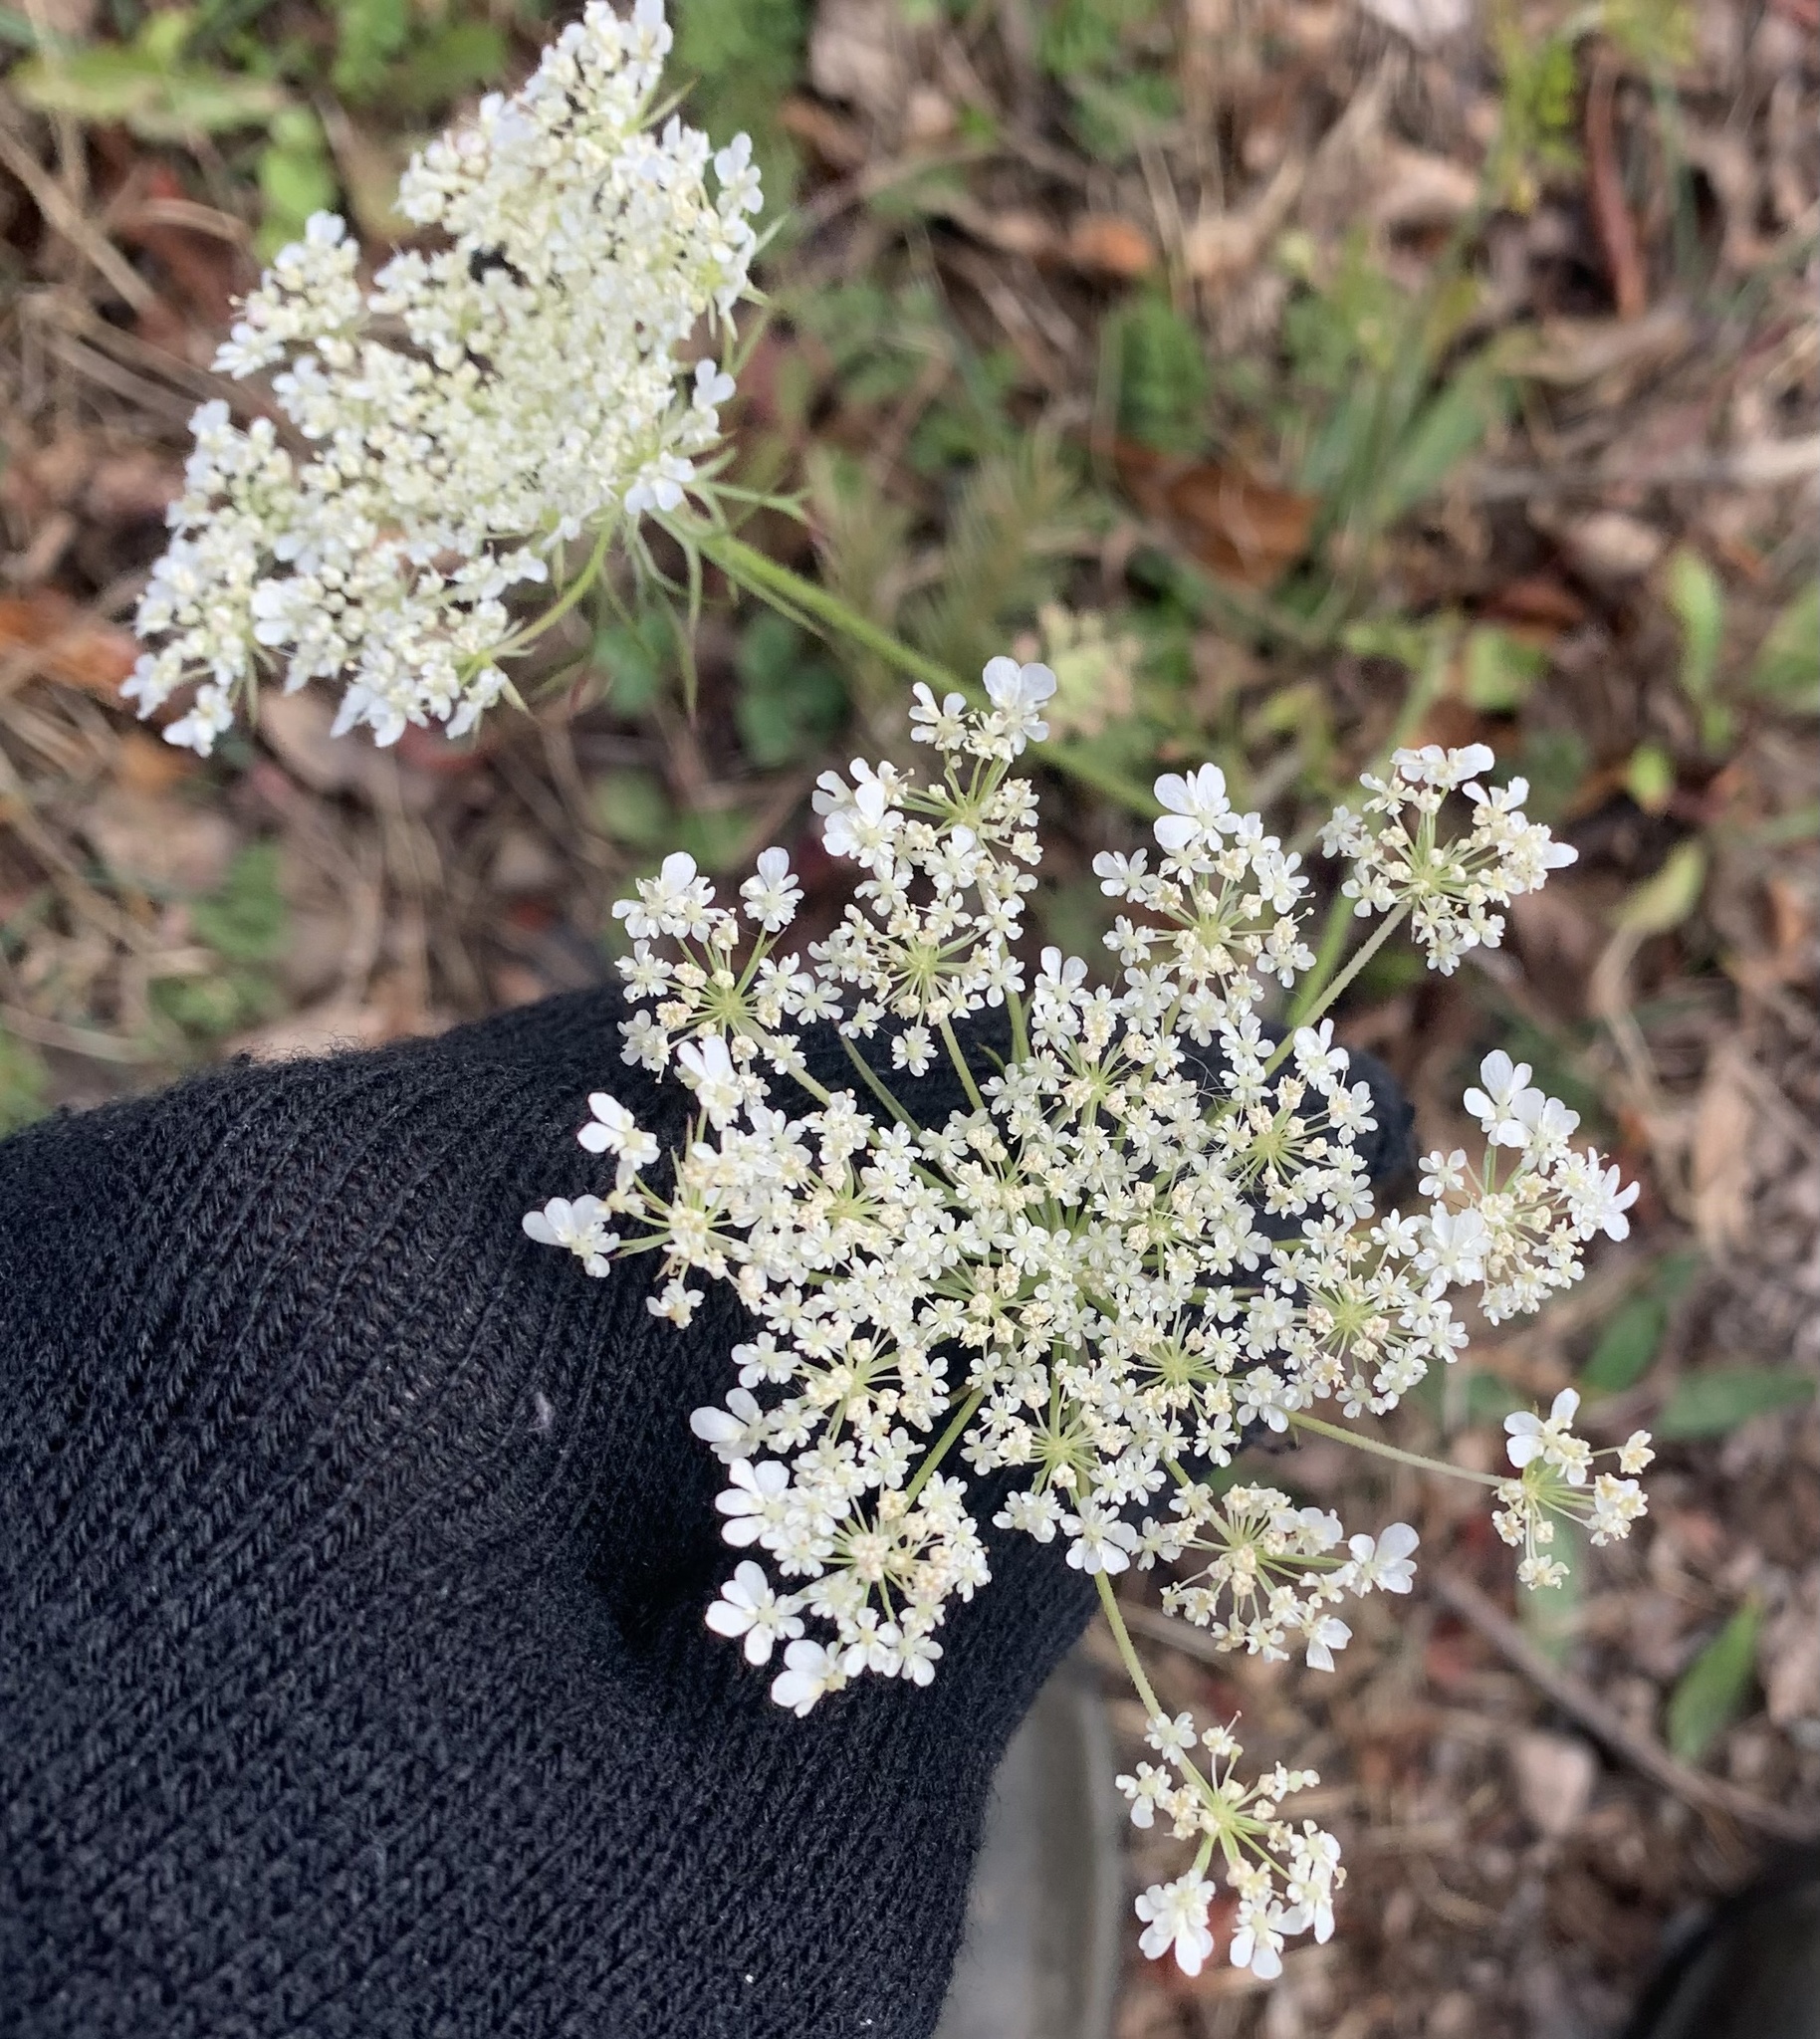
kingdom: Plantae
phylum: Tracheophyta
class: Magnoliopsida
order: Apiales
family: Apiaceae
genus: Daucus
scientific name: Daucus carota
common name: Wild carrot
